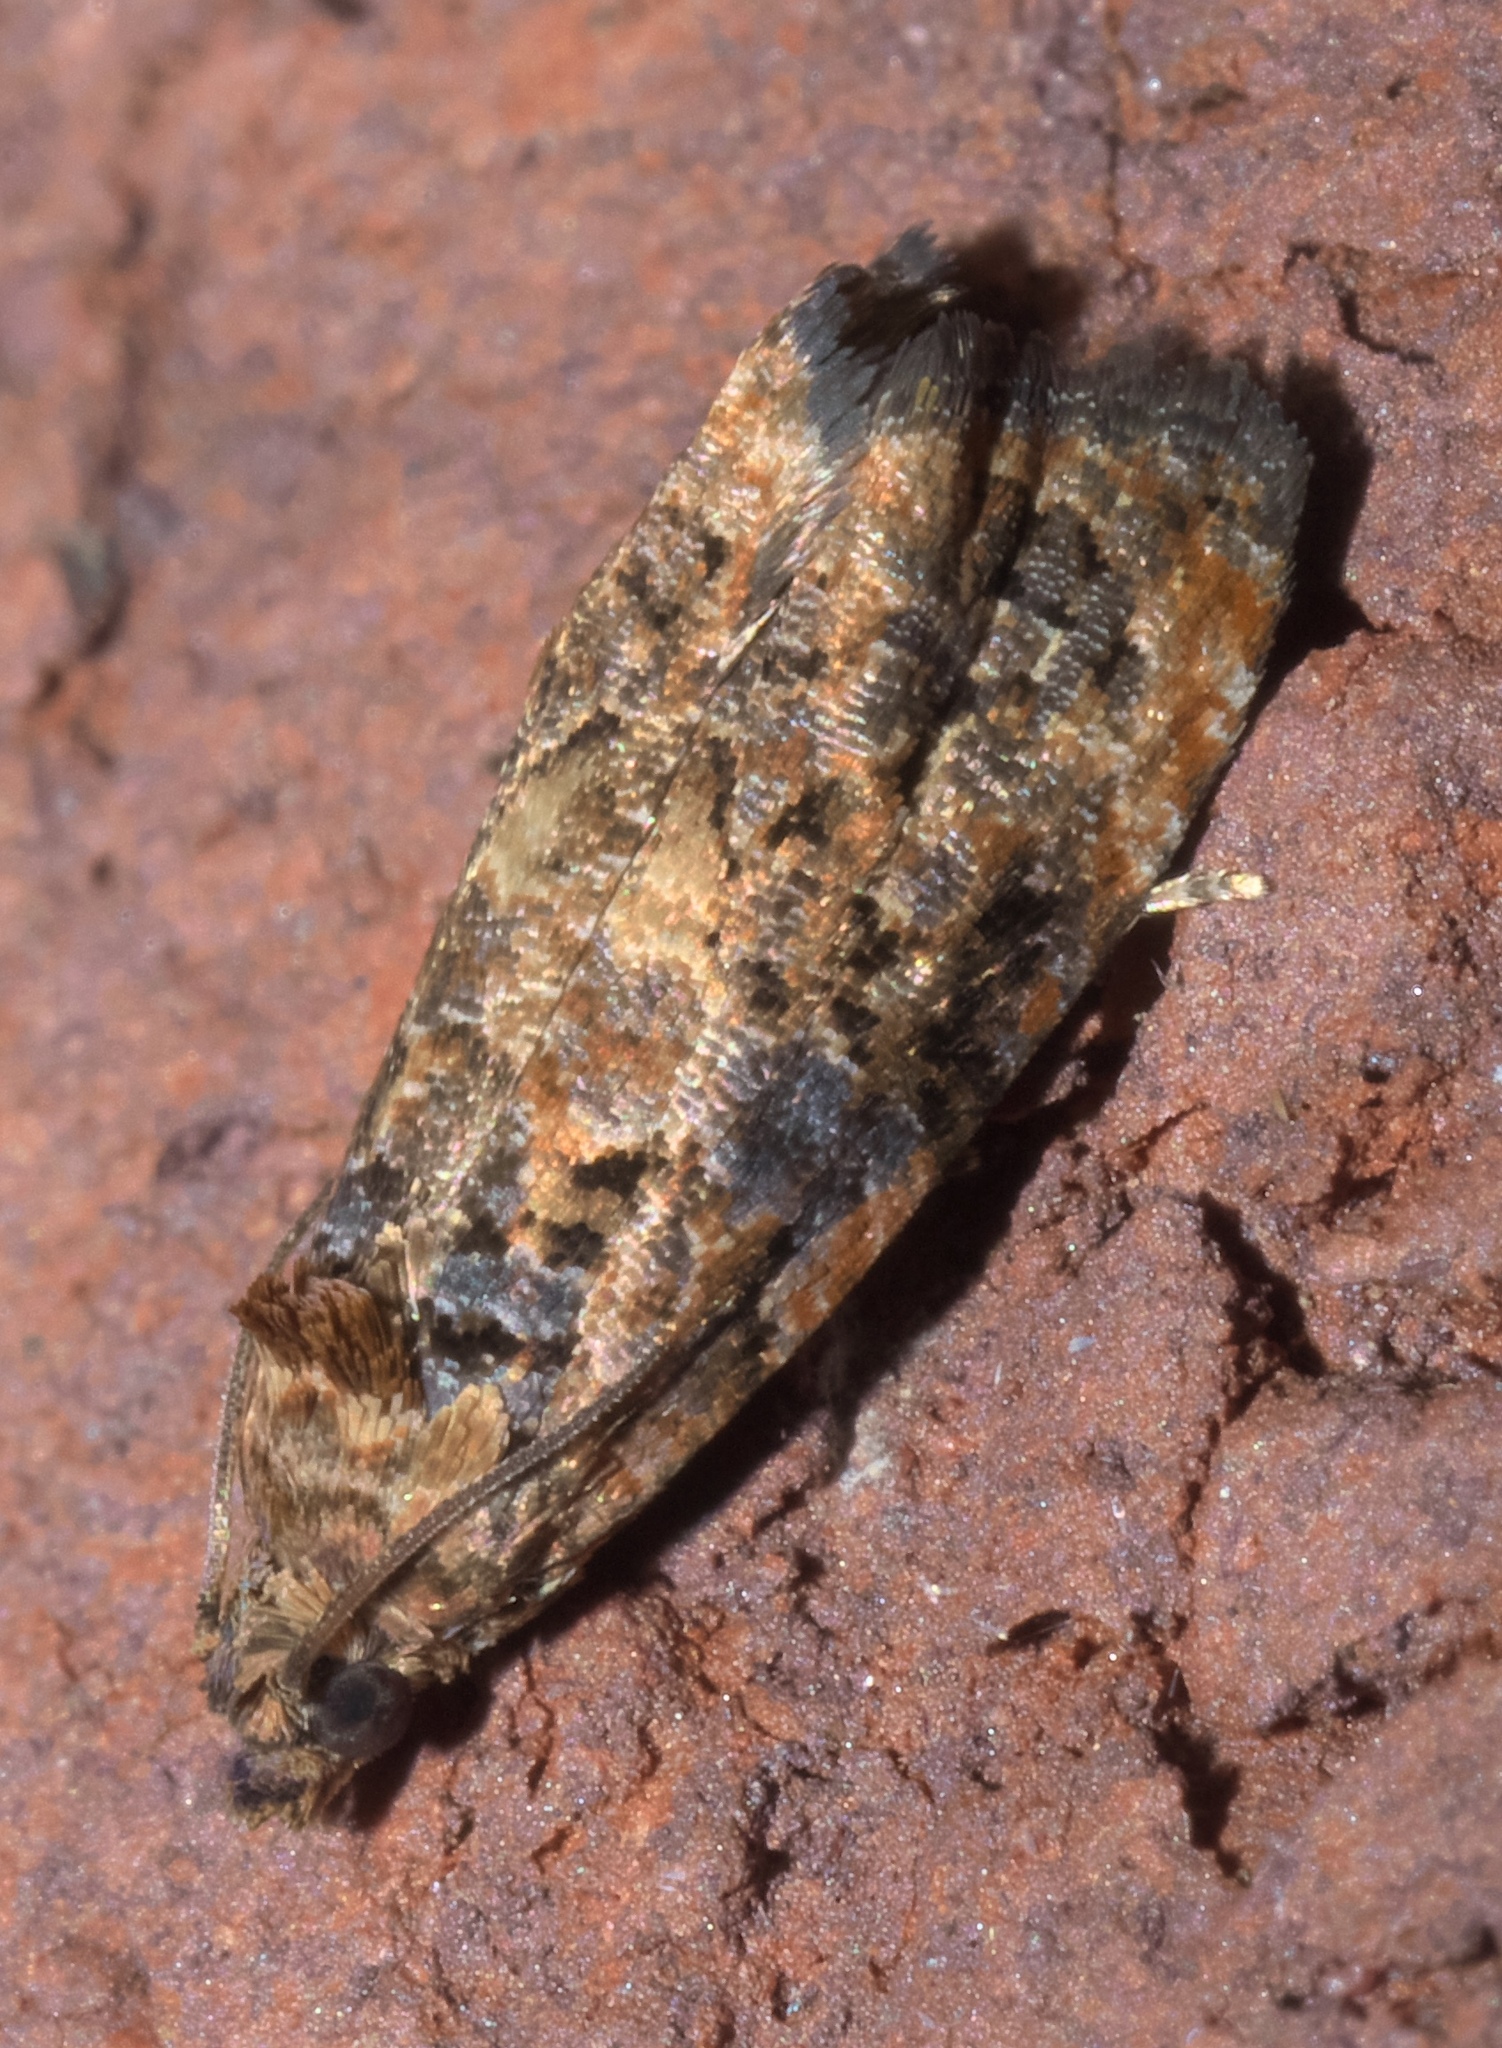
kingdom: Animalia
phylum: Arthropoda
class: Insecta
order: Lepidoptera
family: Tortricidae
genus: Endothenia
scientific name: Endothenia hebesana
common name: Verbena bud moth
